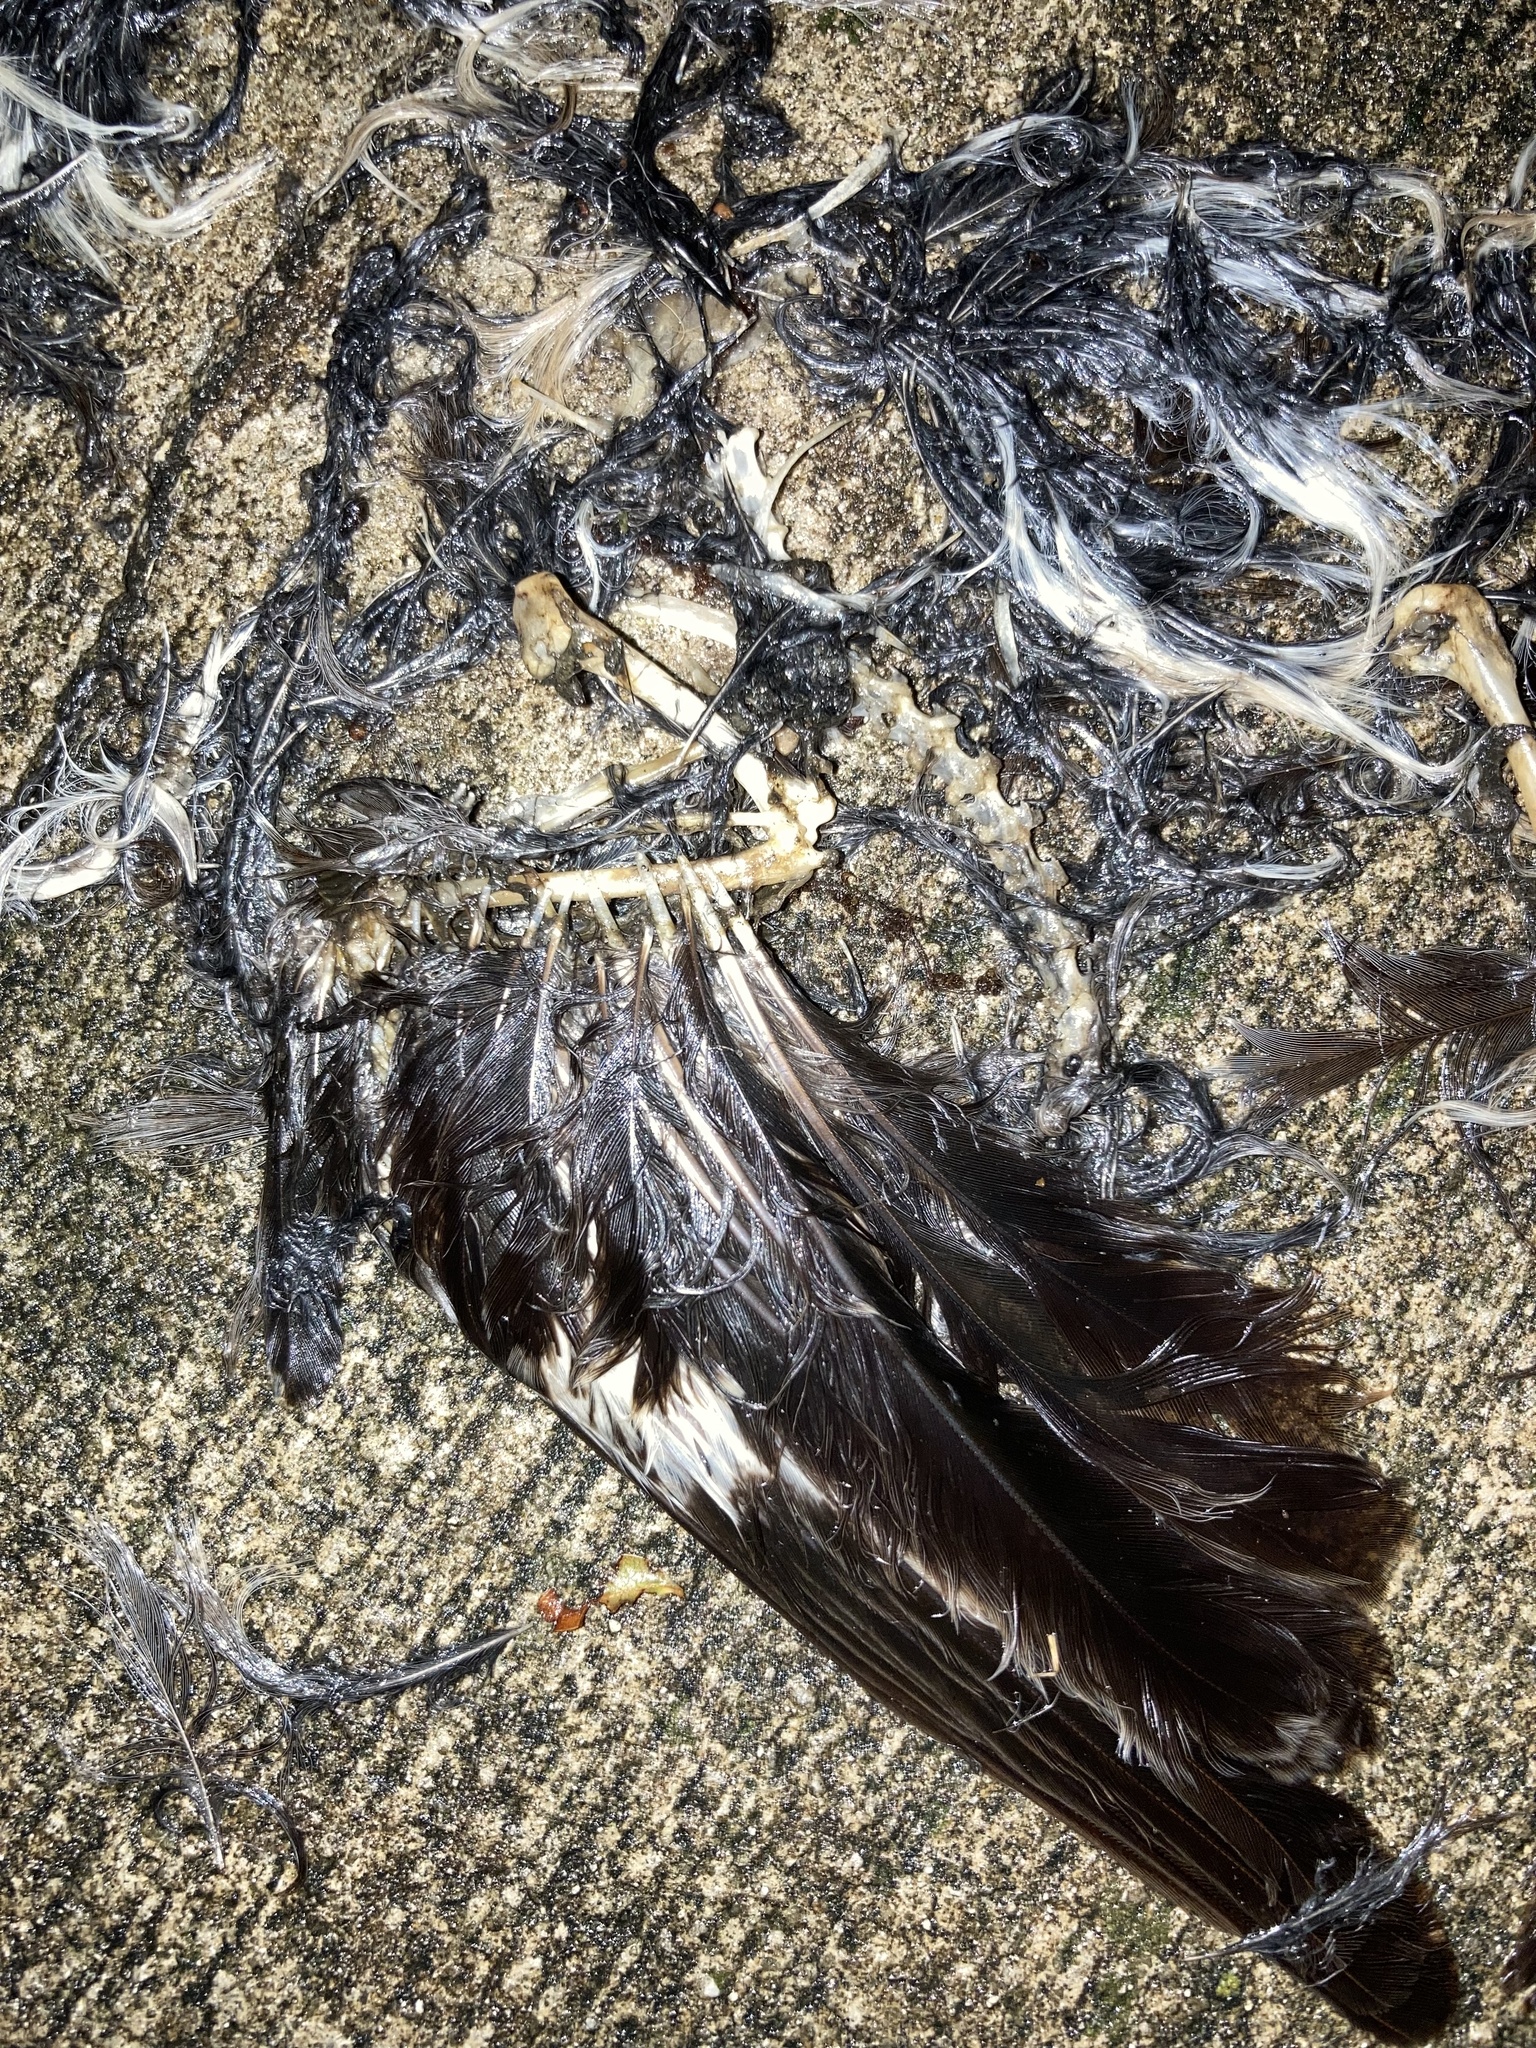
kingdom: Animalia
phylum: Chordata
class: Aves
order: Passeriformes
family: Mimidae
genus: Mimus
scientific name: Mimus polyglottos
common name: Northern mockingbird
